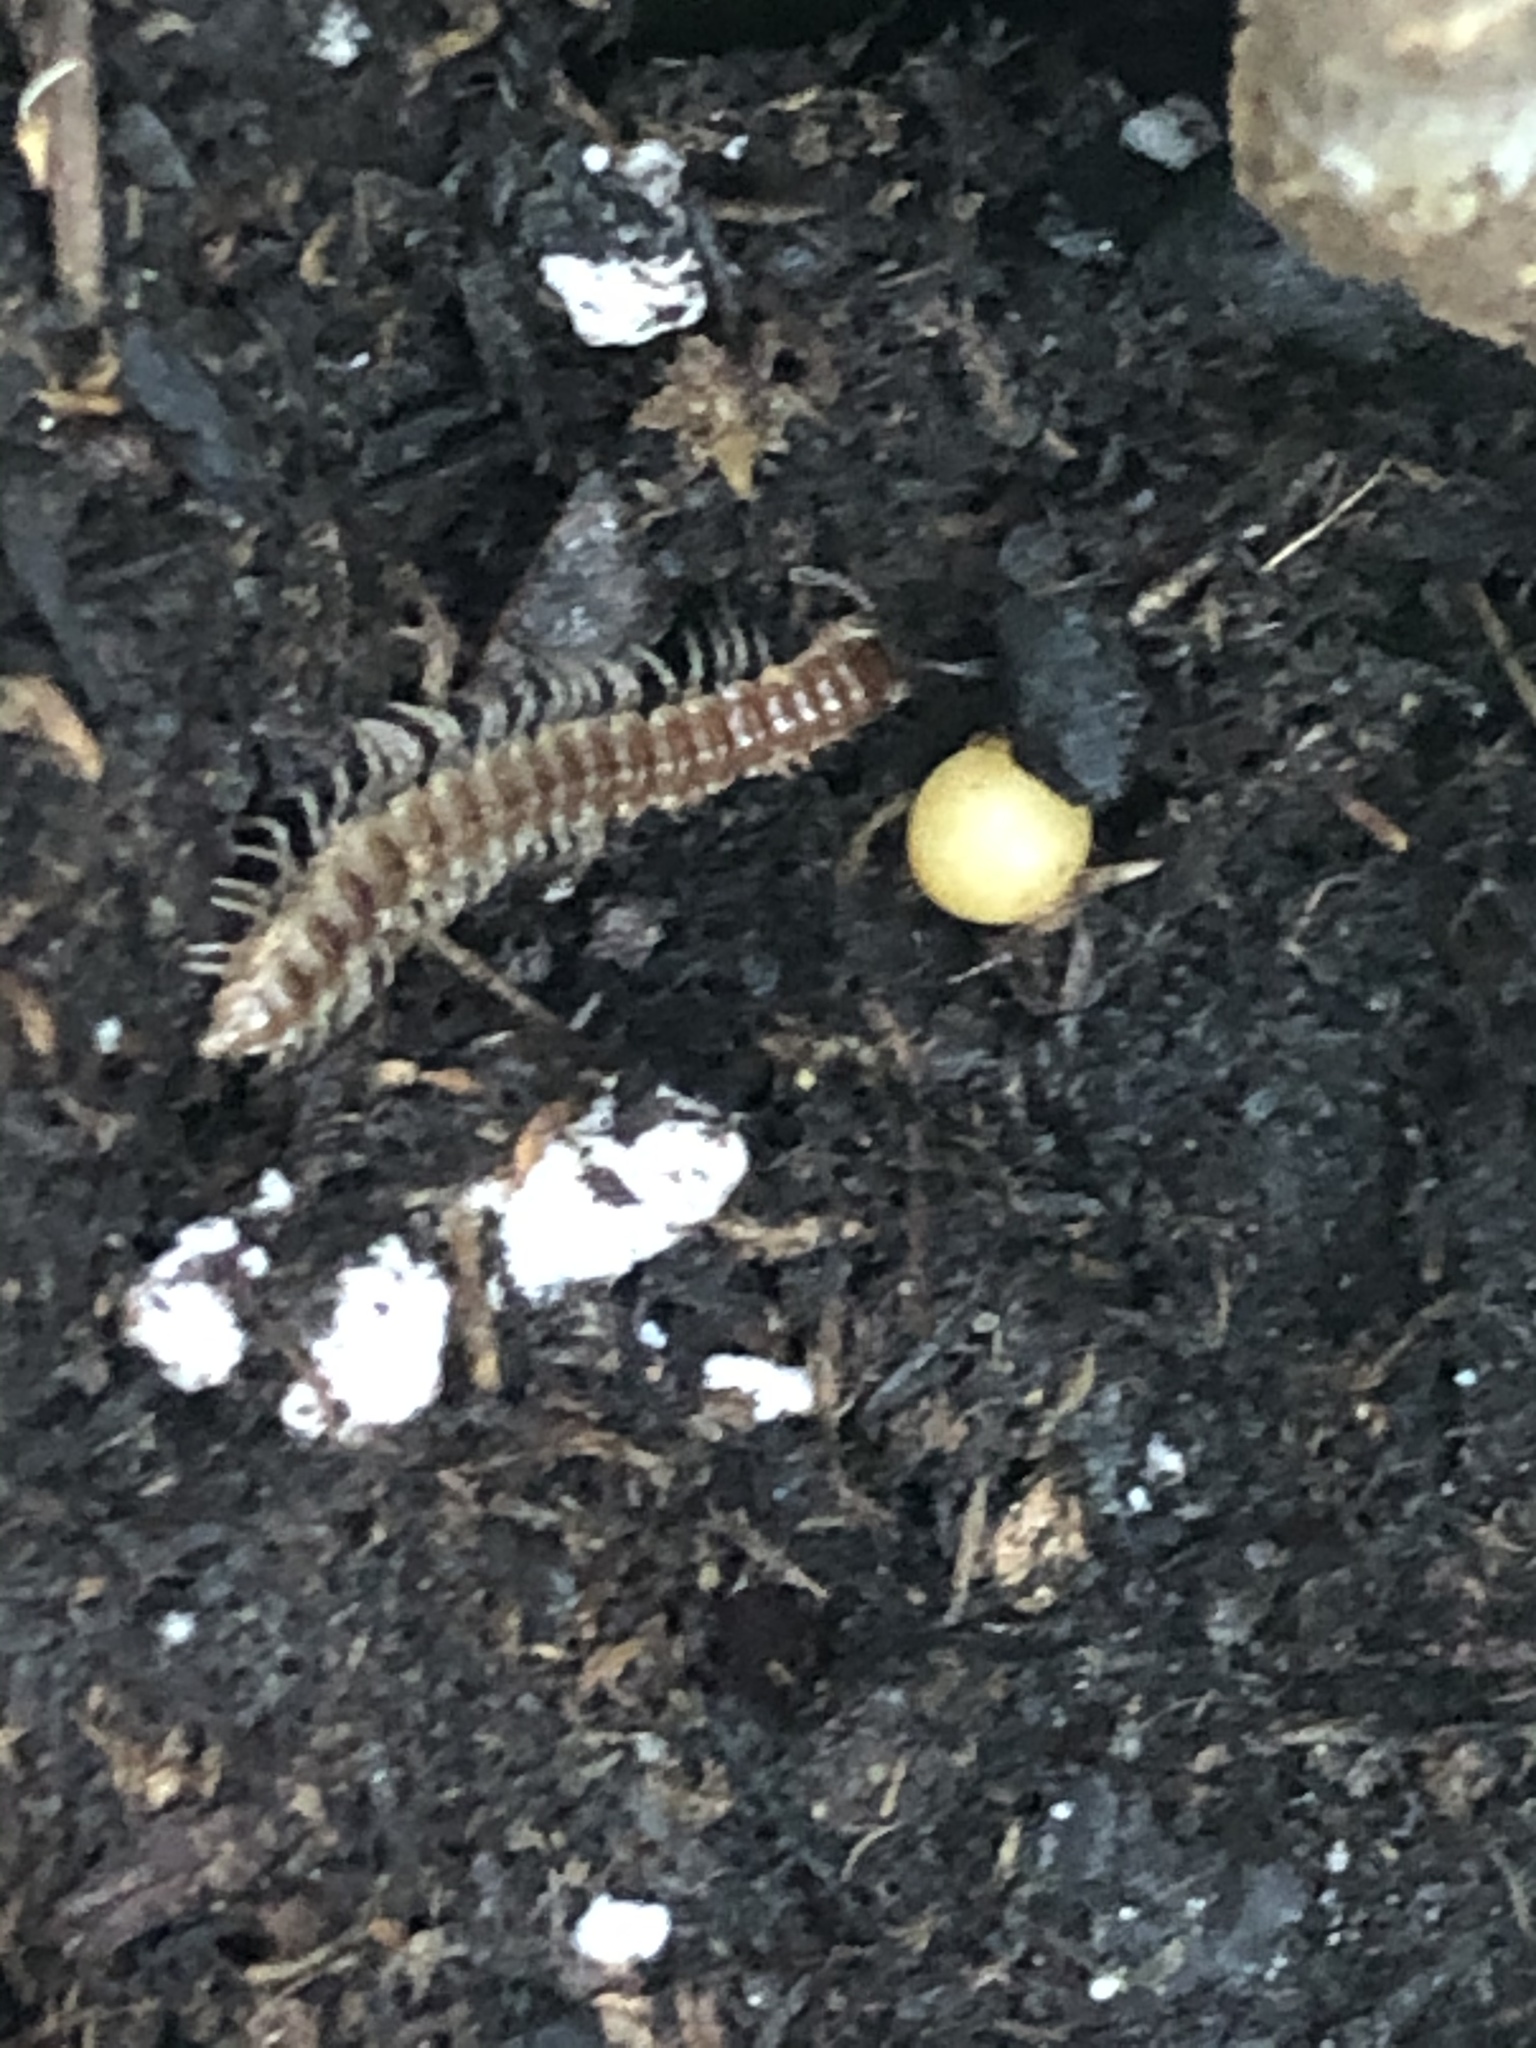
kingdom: Animalia
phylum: Arthropoda
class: Diplopoda
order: Polydesmida
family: Paradoxosomatidae
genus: Oxidus
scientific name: Oxidus gracilis
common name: Greenhouse millipede
